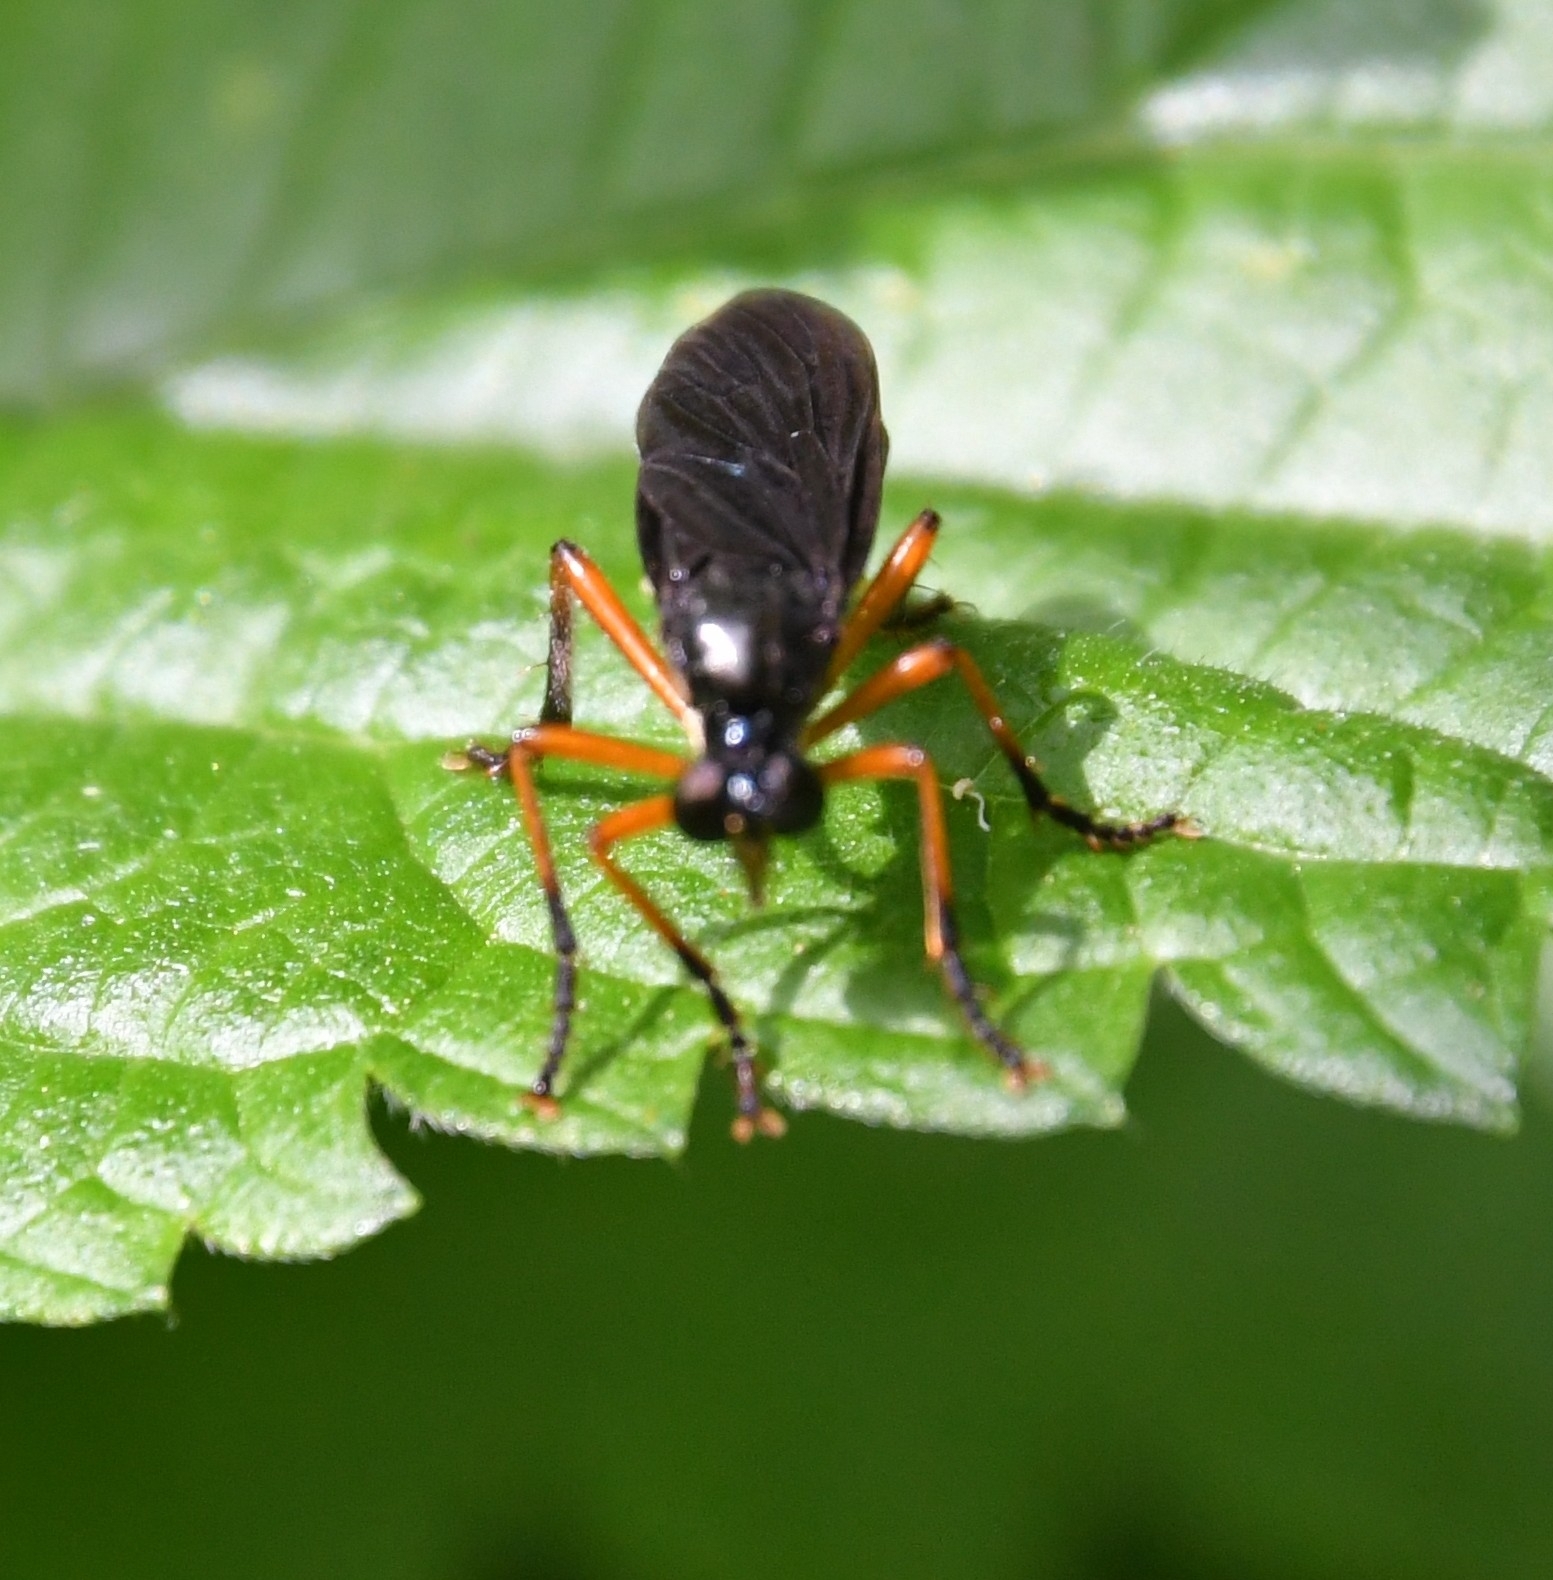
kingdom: Animalia
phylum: Arthropoda
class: Insecta
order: Diptera
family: Asilidae
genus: Dioctria
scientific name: Dioctria oelandica
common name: Orange-legged robberfly
